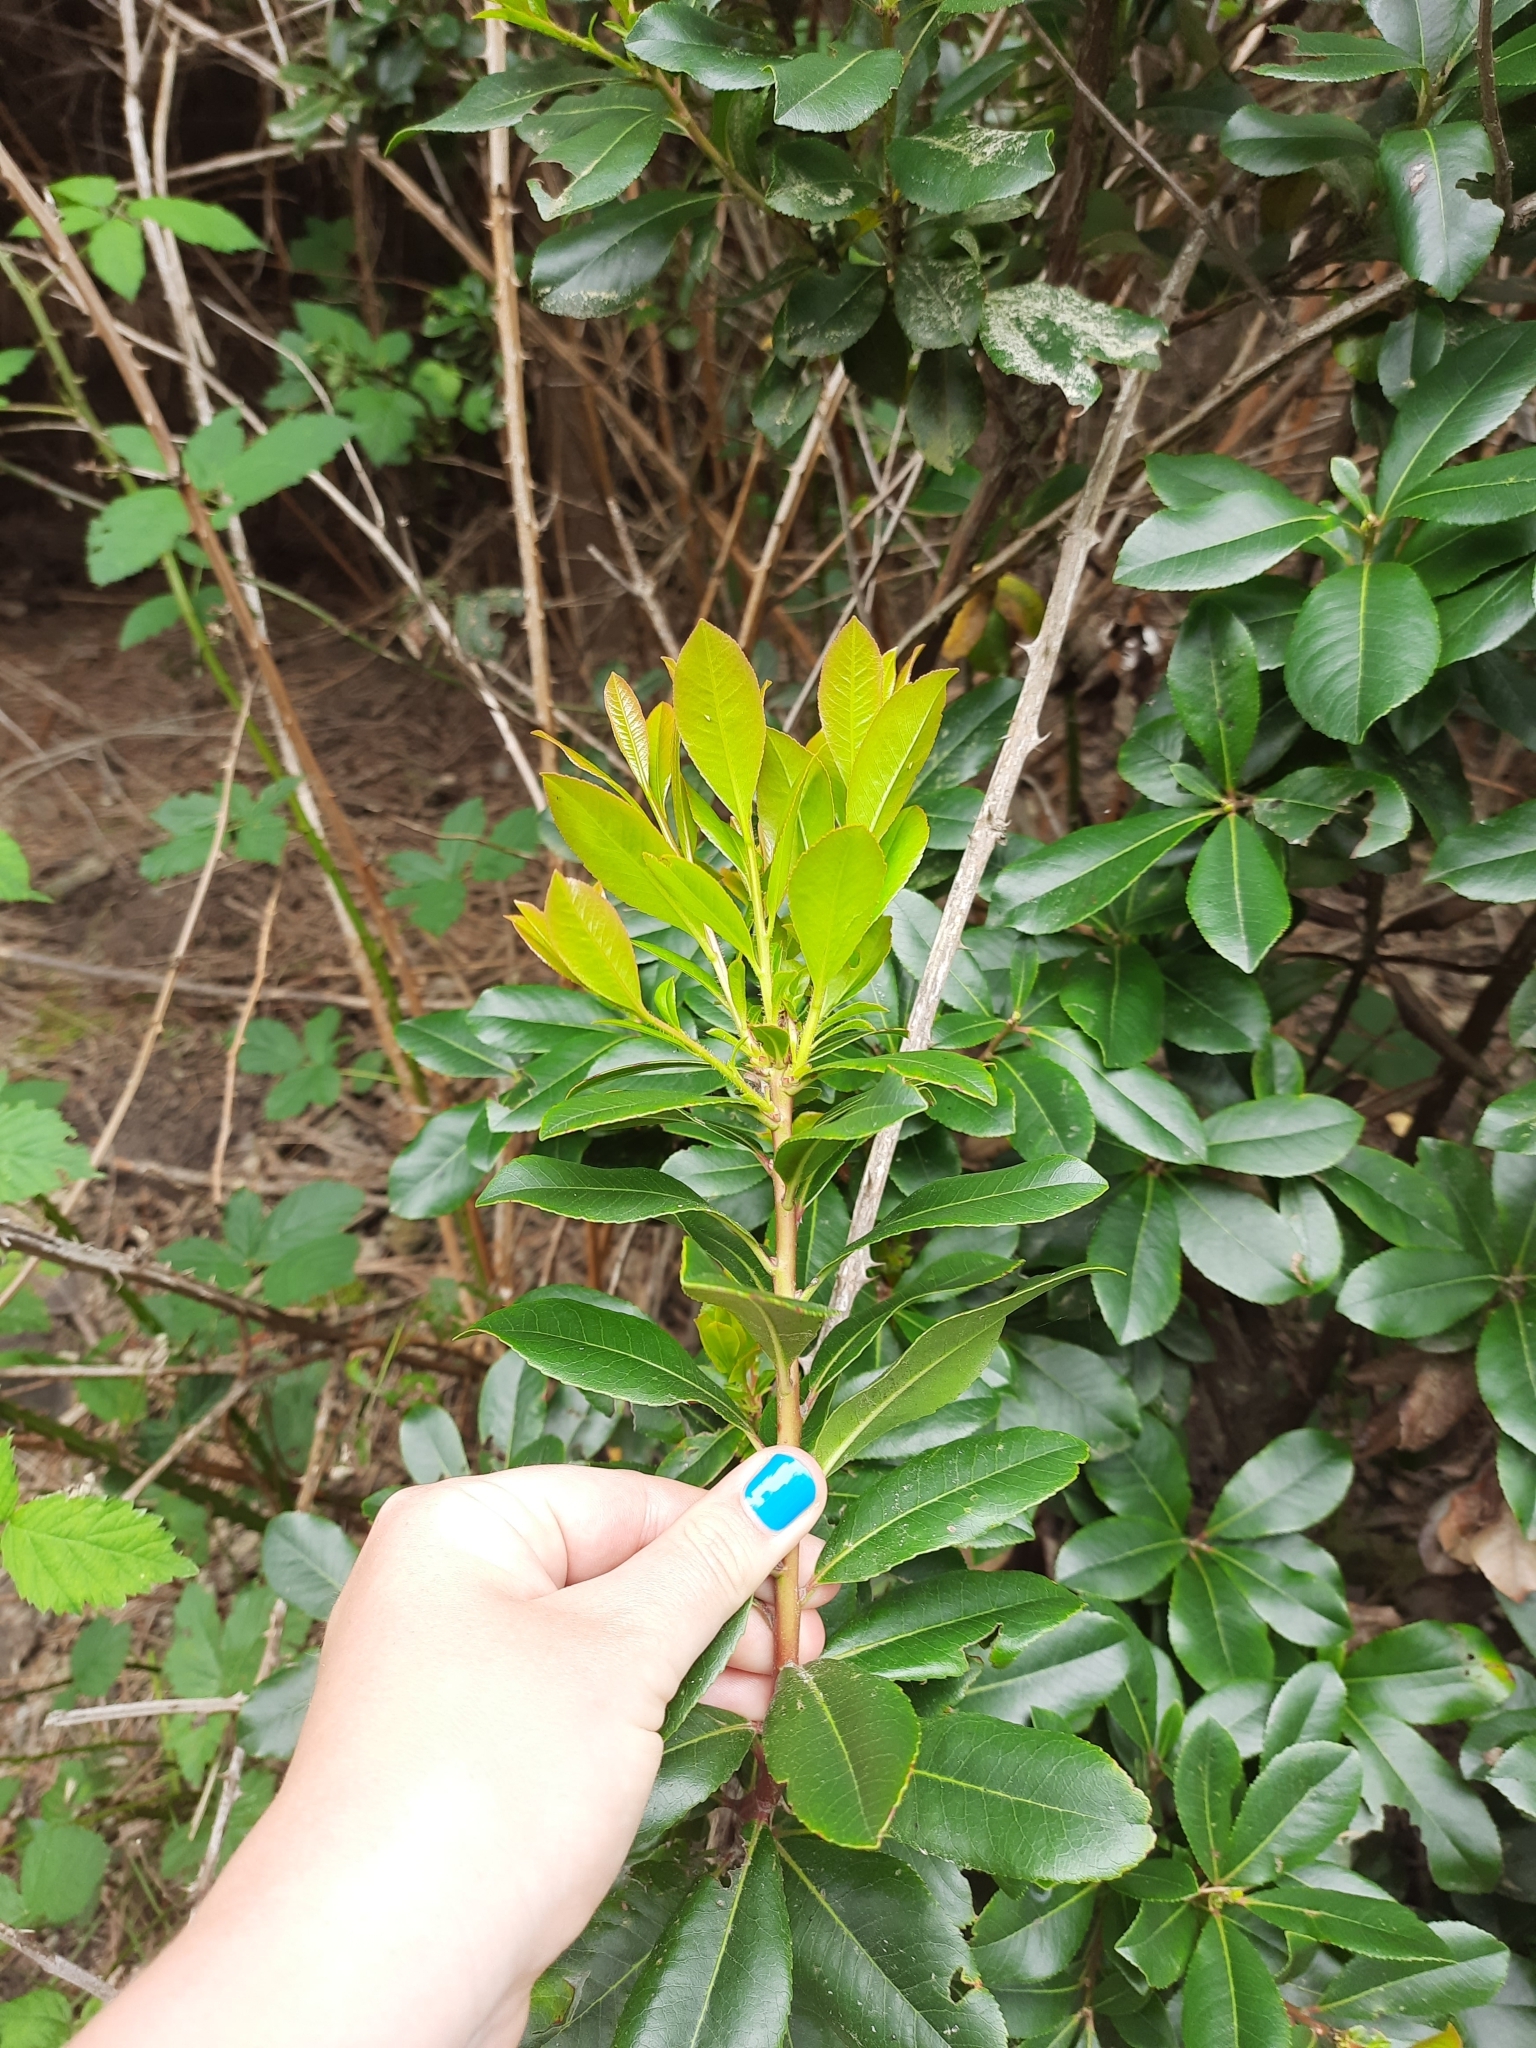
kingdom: Plantae
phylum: Tracheophyta
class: Magnoliopsida
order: Ericales
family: Ericaceae
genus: Arbutus
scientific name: Arbutus unedo
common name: Strawberry-tree
